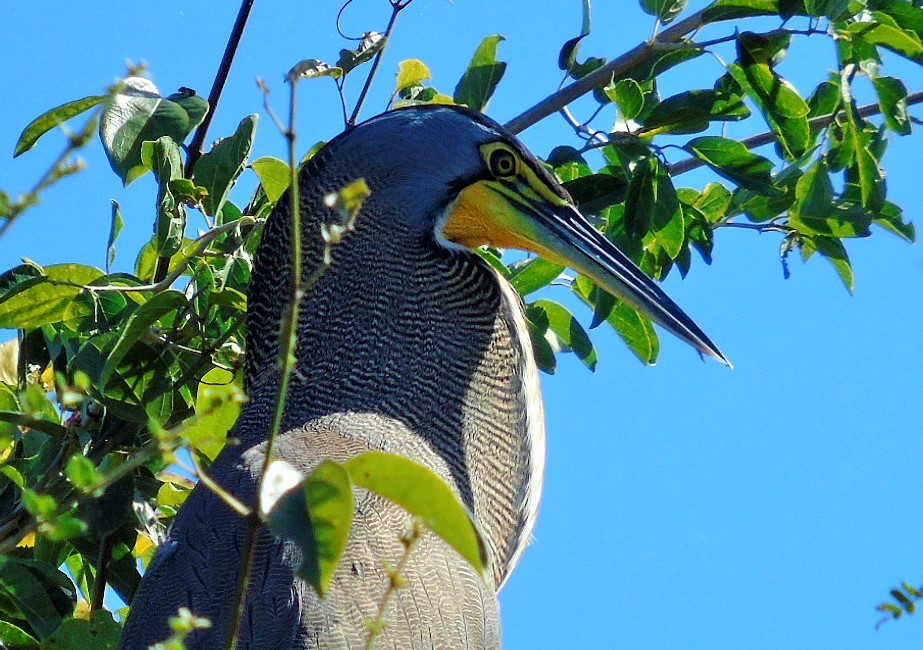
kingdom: Animalia
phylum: Chordata
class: Aves
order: Pelecaniformes
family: Ardeidae
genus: Tigrisoma
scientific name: Tigrisoma mexicanum
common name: Bare-throated tiger-heron
